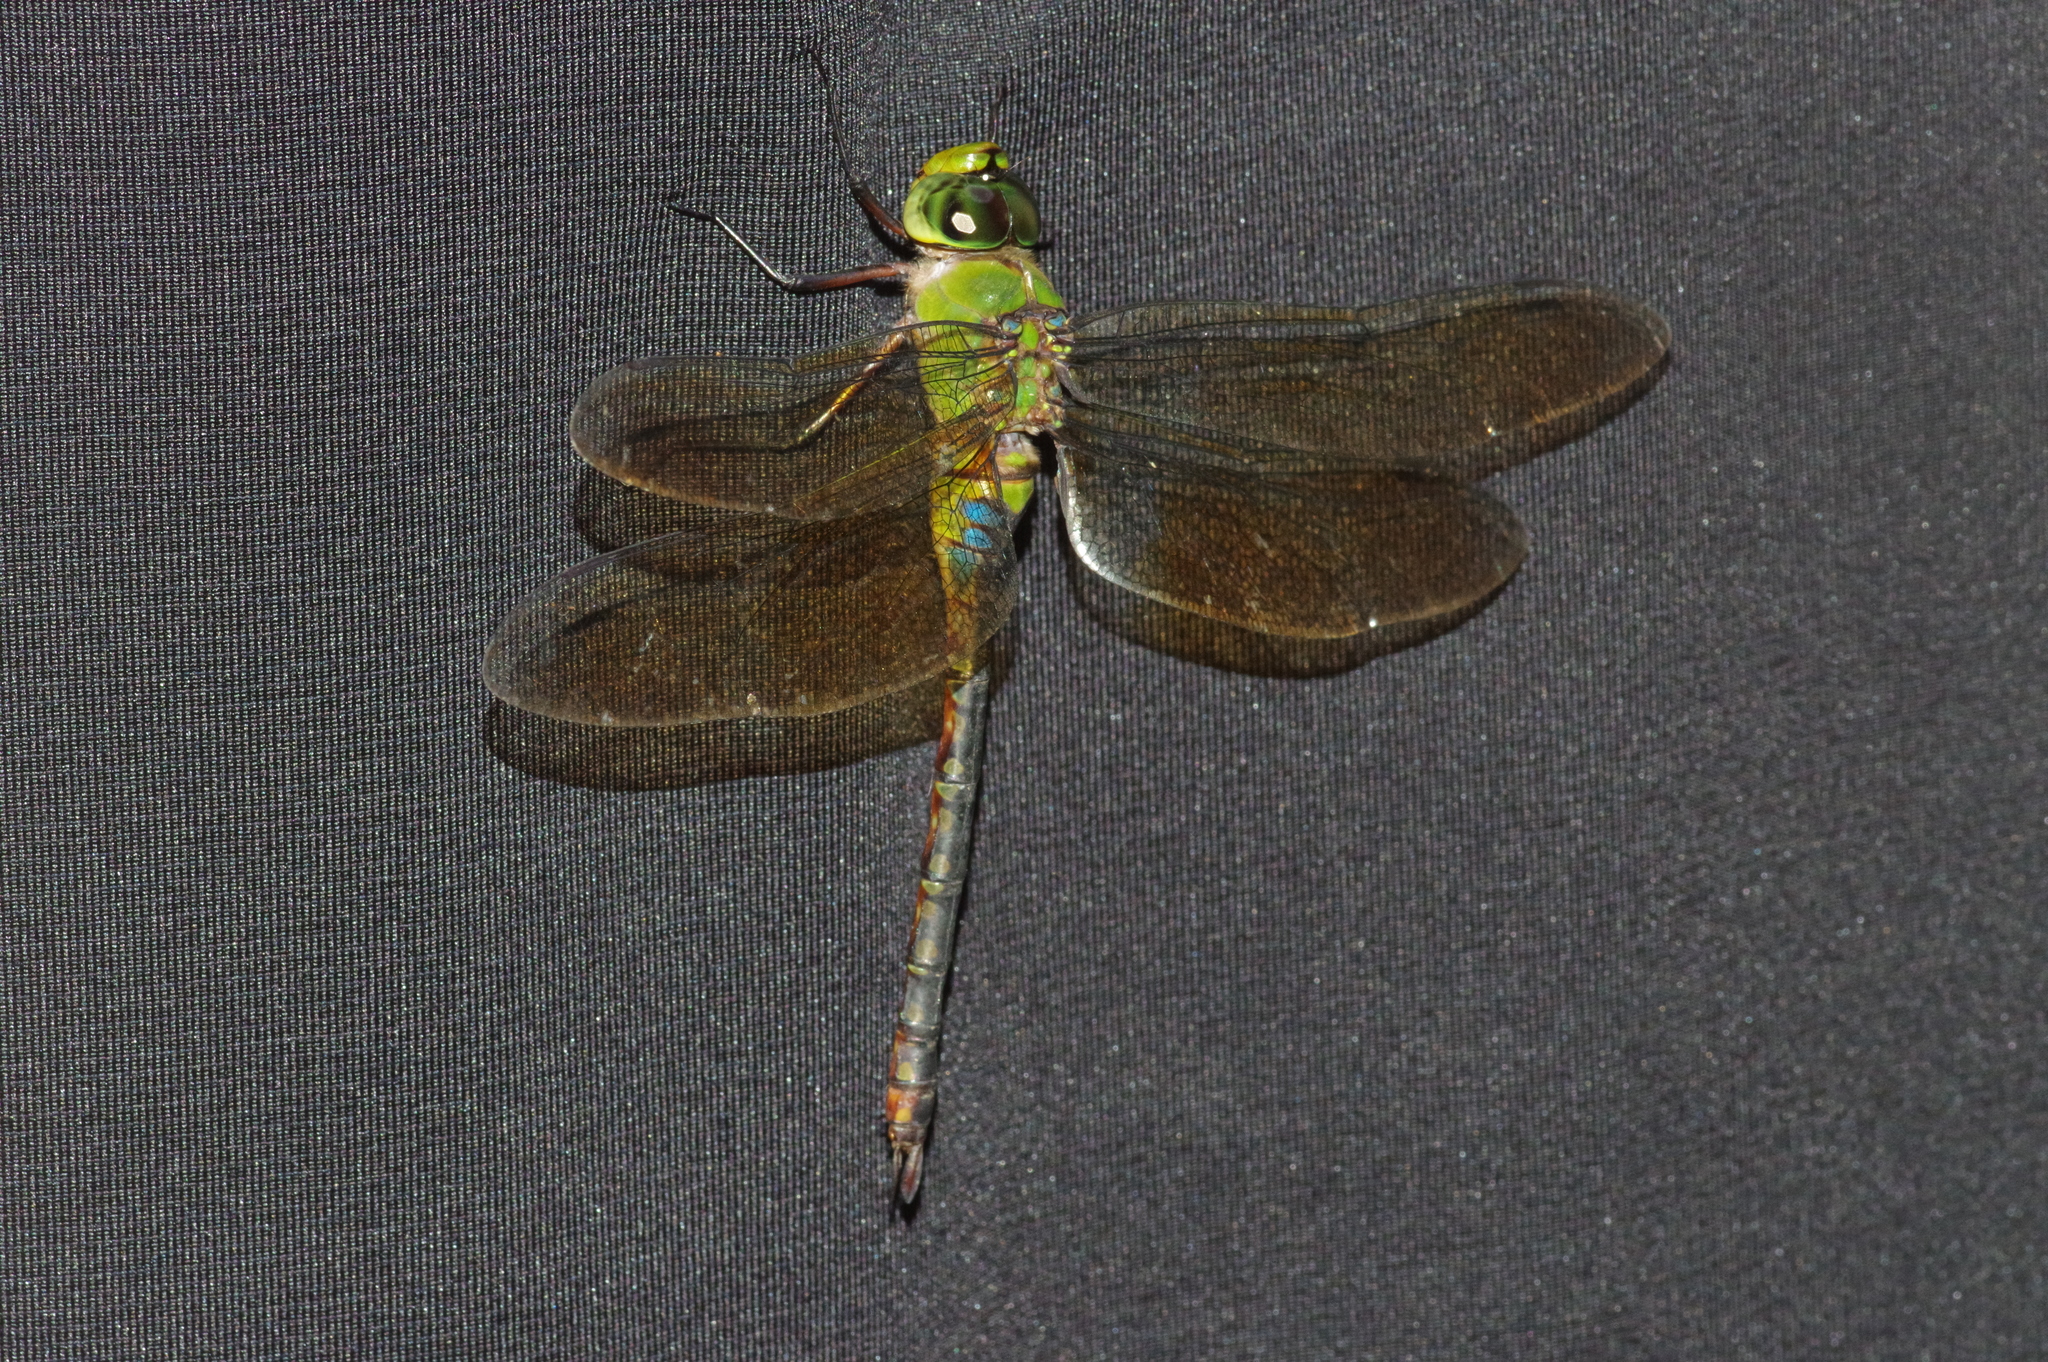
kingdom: Animalia
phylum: Arthropoda
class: Insecta
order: Odonata
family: Aeshnidae
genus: Anax
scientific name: Anax panybeus
